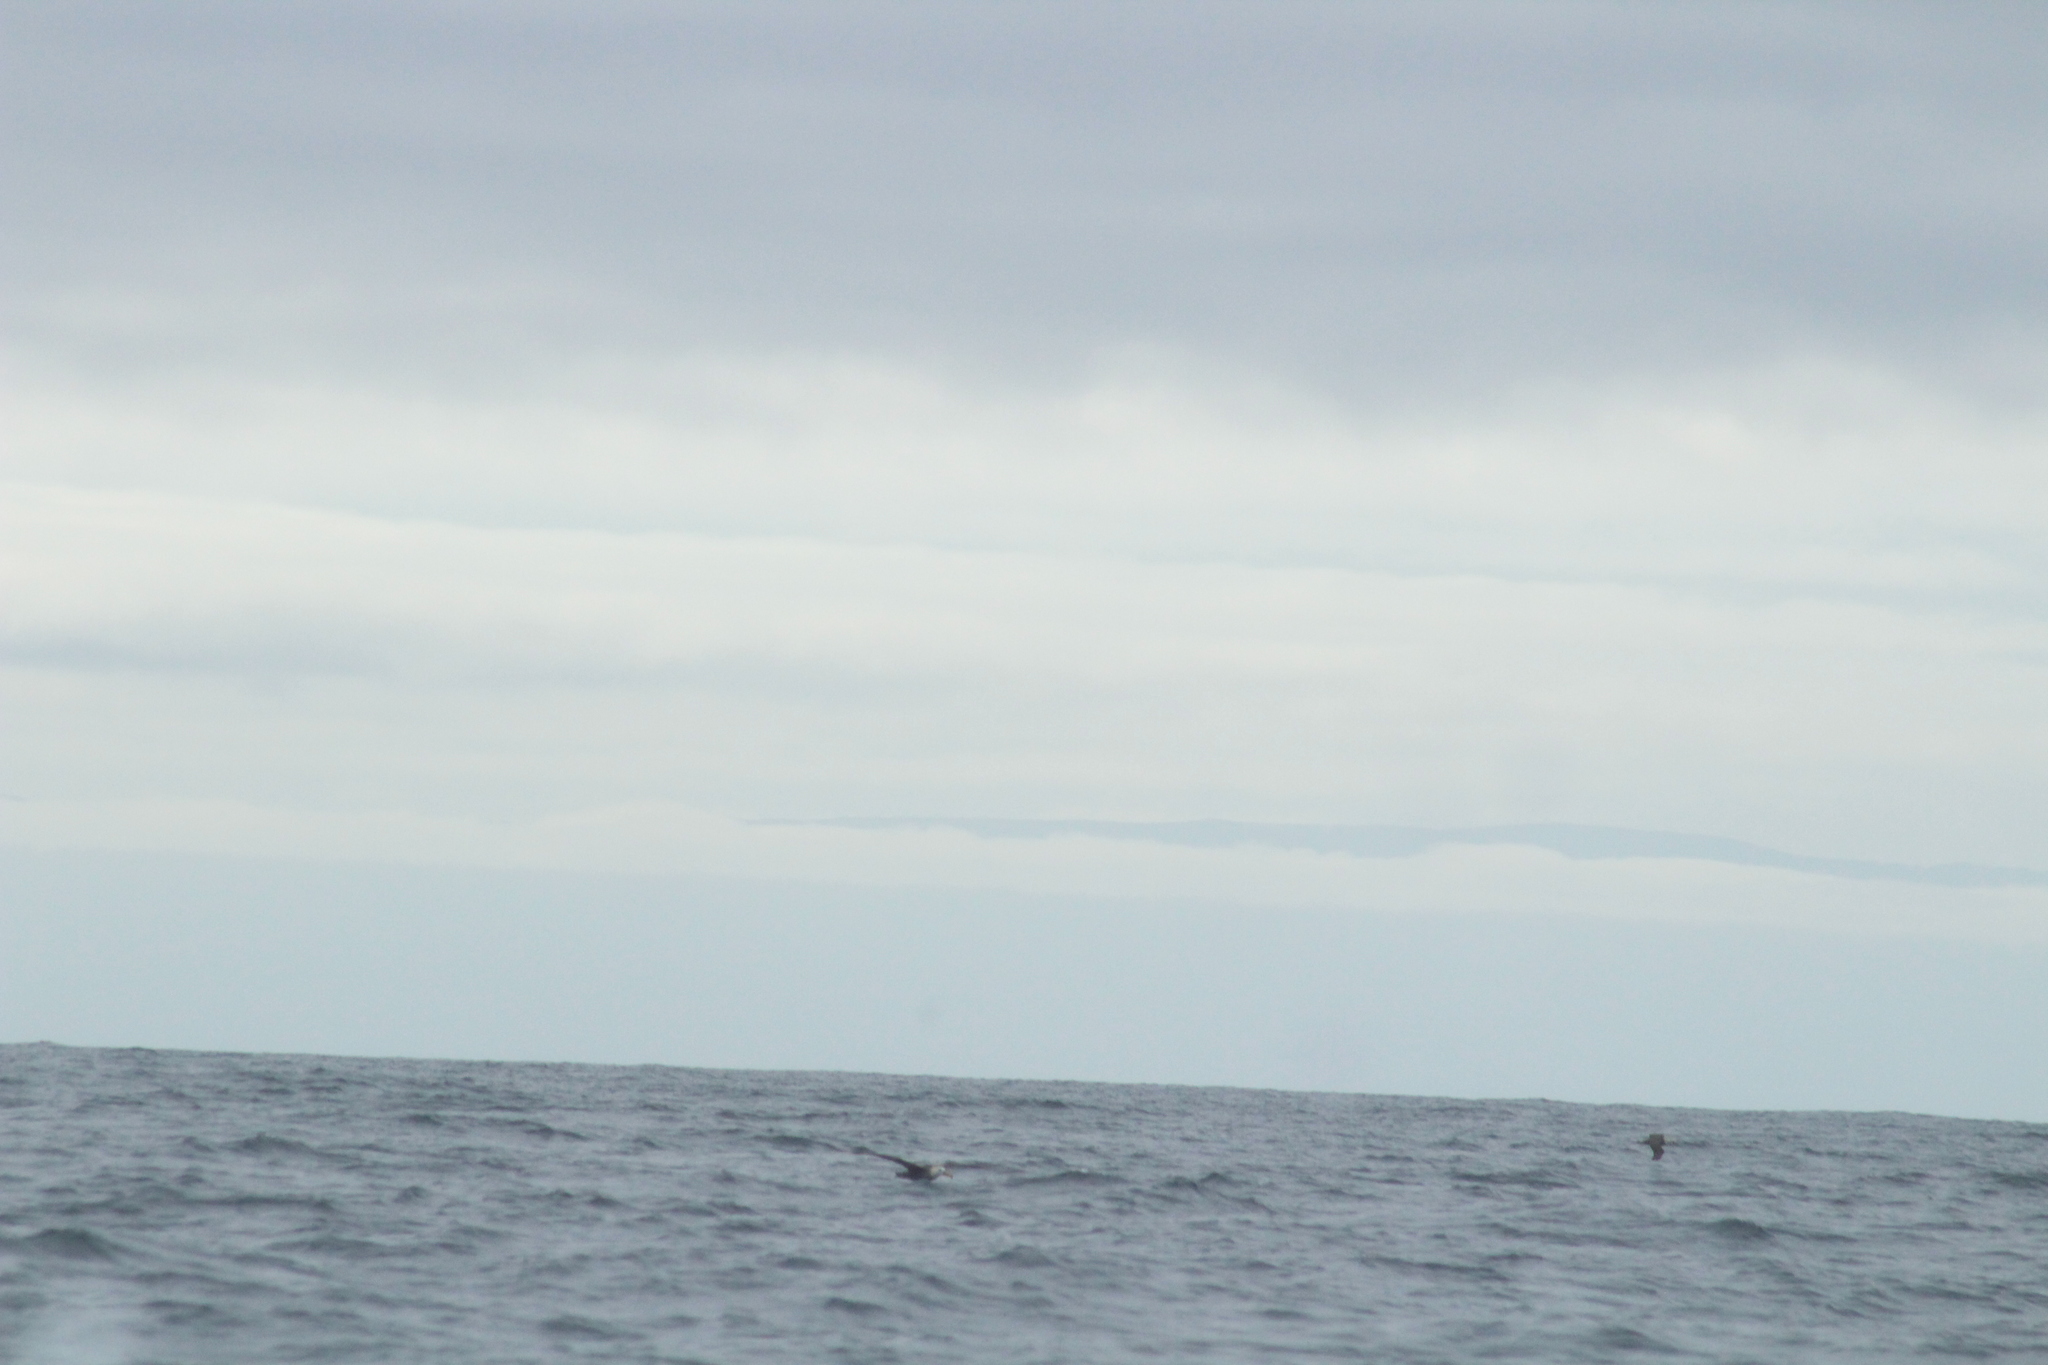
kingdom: Animalia
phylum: Chordata
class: Aves
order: Procellariiformes
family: Diomedeidae
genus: Phoebastria
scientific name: Phoebastria irrorata
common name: Waved albatross
